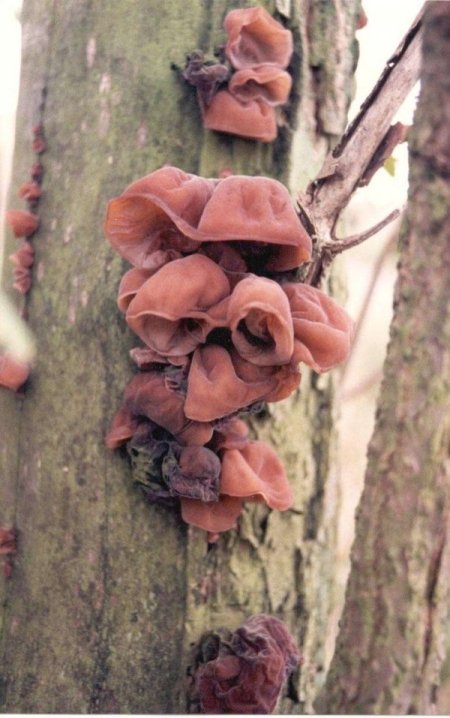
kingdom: Fungi
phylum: Basidiomycota
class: Agaricomycetes
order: Auriculariales
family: Auriculariaceae
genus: Auricularia
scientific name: Auricularia auricula-judae
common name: Jelly ear
